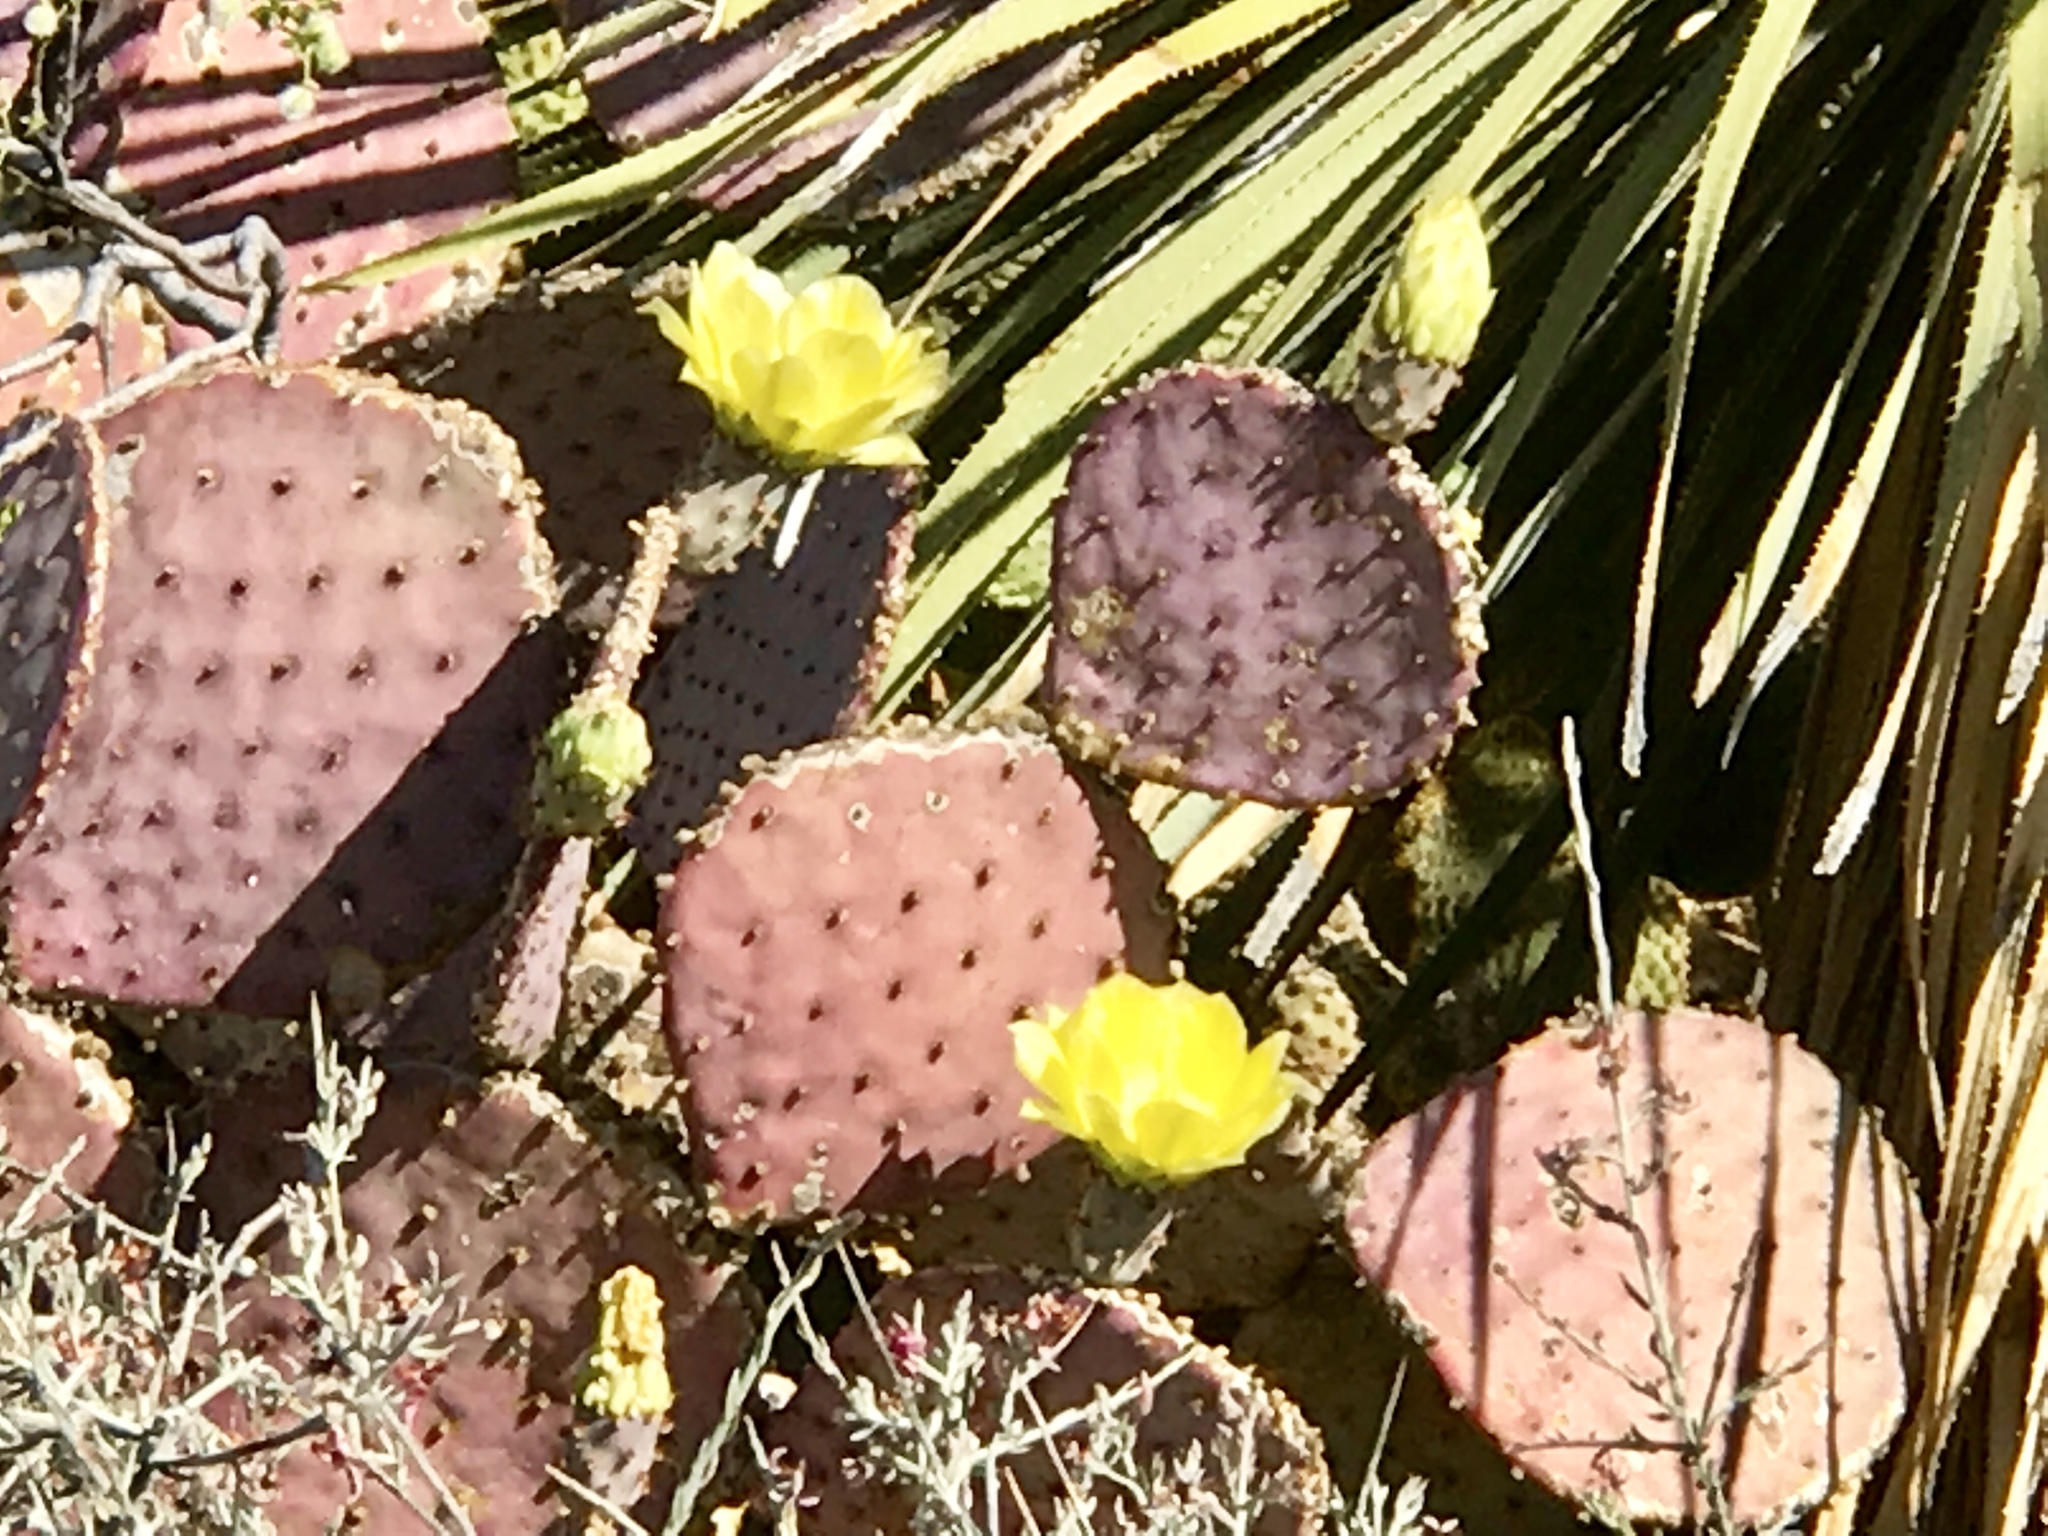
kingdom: Plantae
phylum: Tracheophyta
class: Magnoliopsida
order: Caryophyllales
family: Cactaceae
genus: Opuntia
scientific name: Opuntia gosseliniana
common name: Violet prickly-pear
